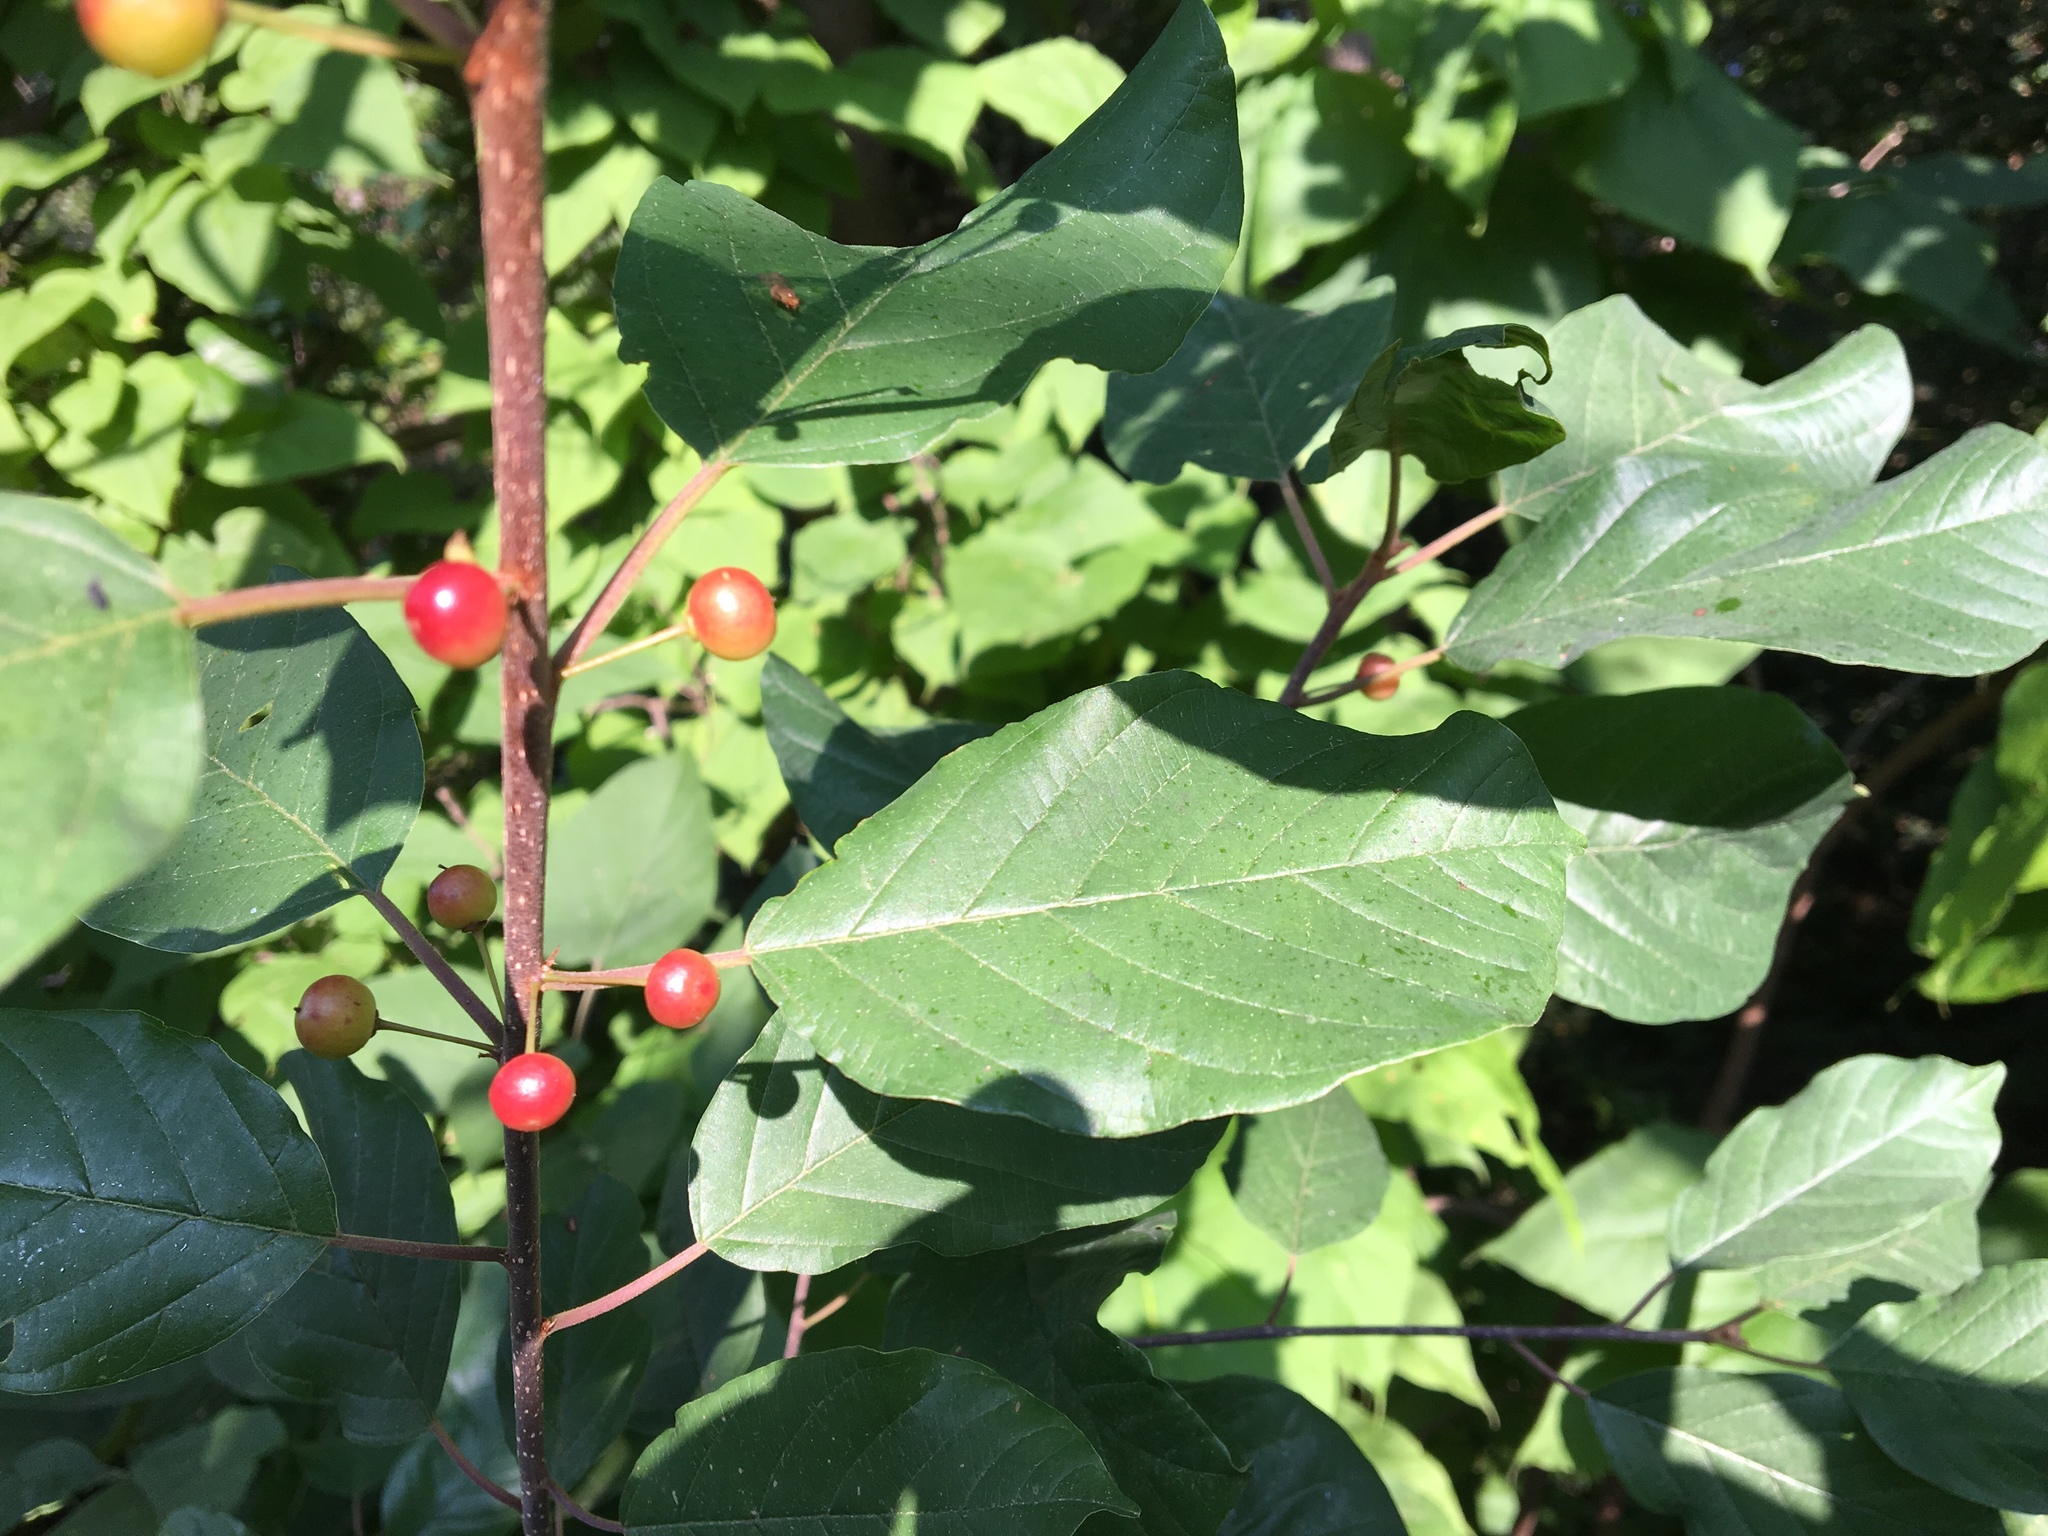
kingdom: Plantae
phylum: Tracheophyta
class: Magnoliopsida
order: Rosales
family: Rhamnaceae
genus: Frangula
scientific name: Frangula alnus
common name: Alder buckthorn
